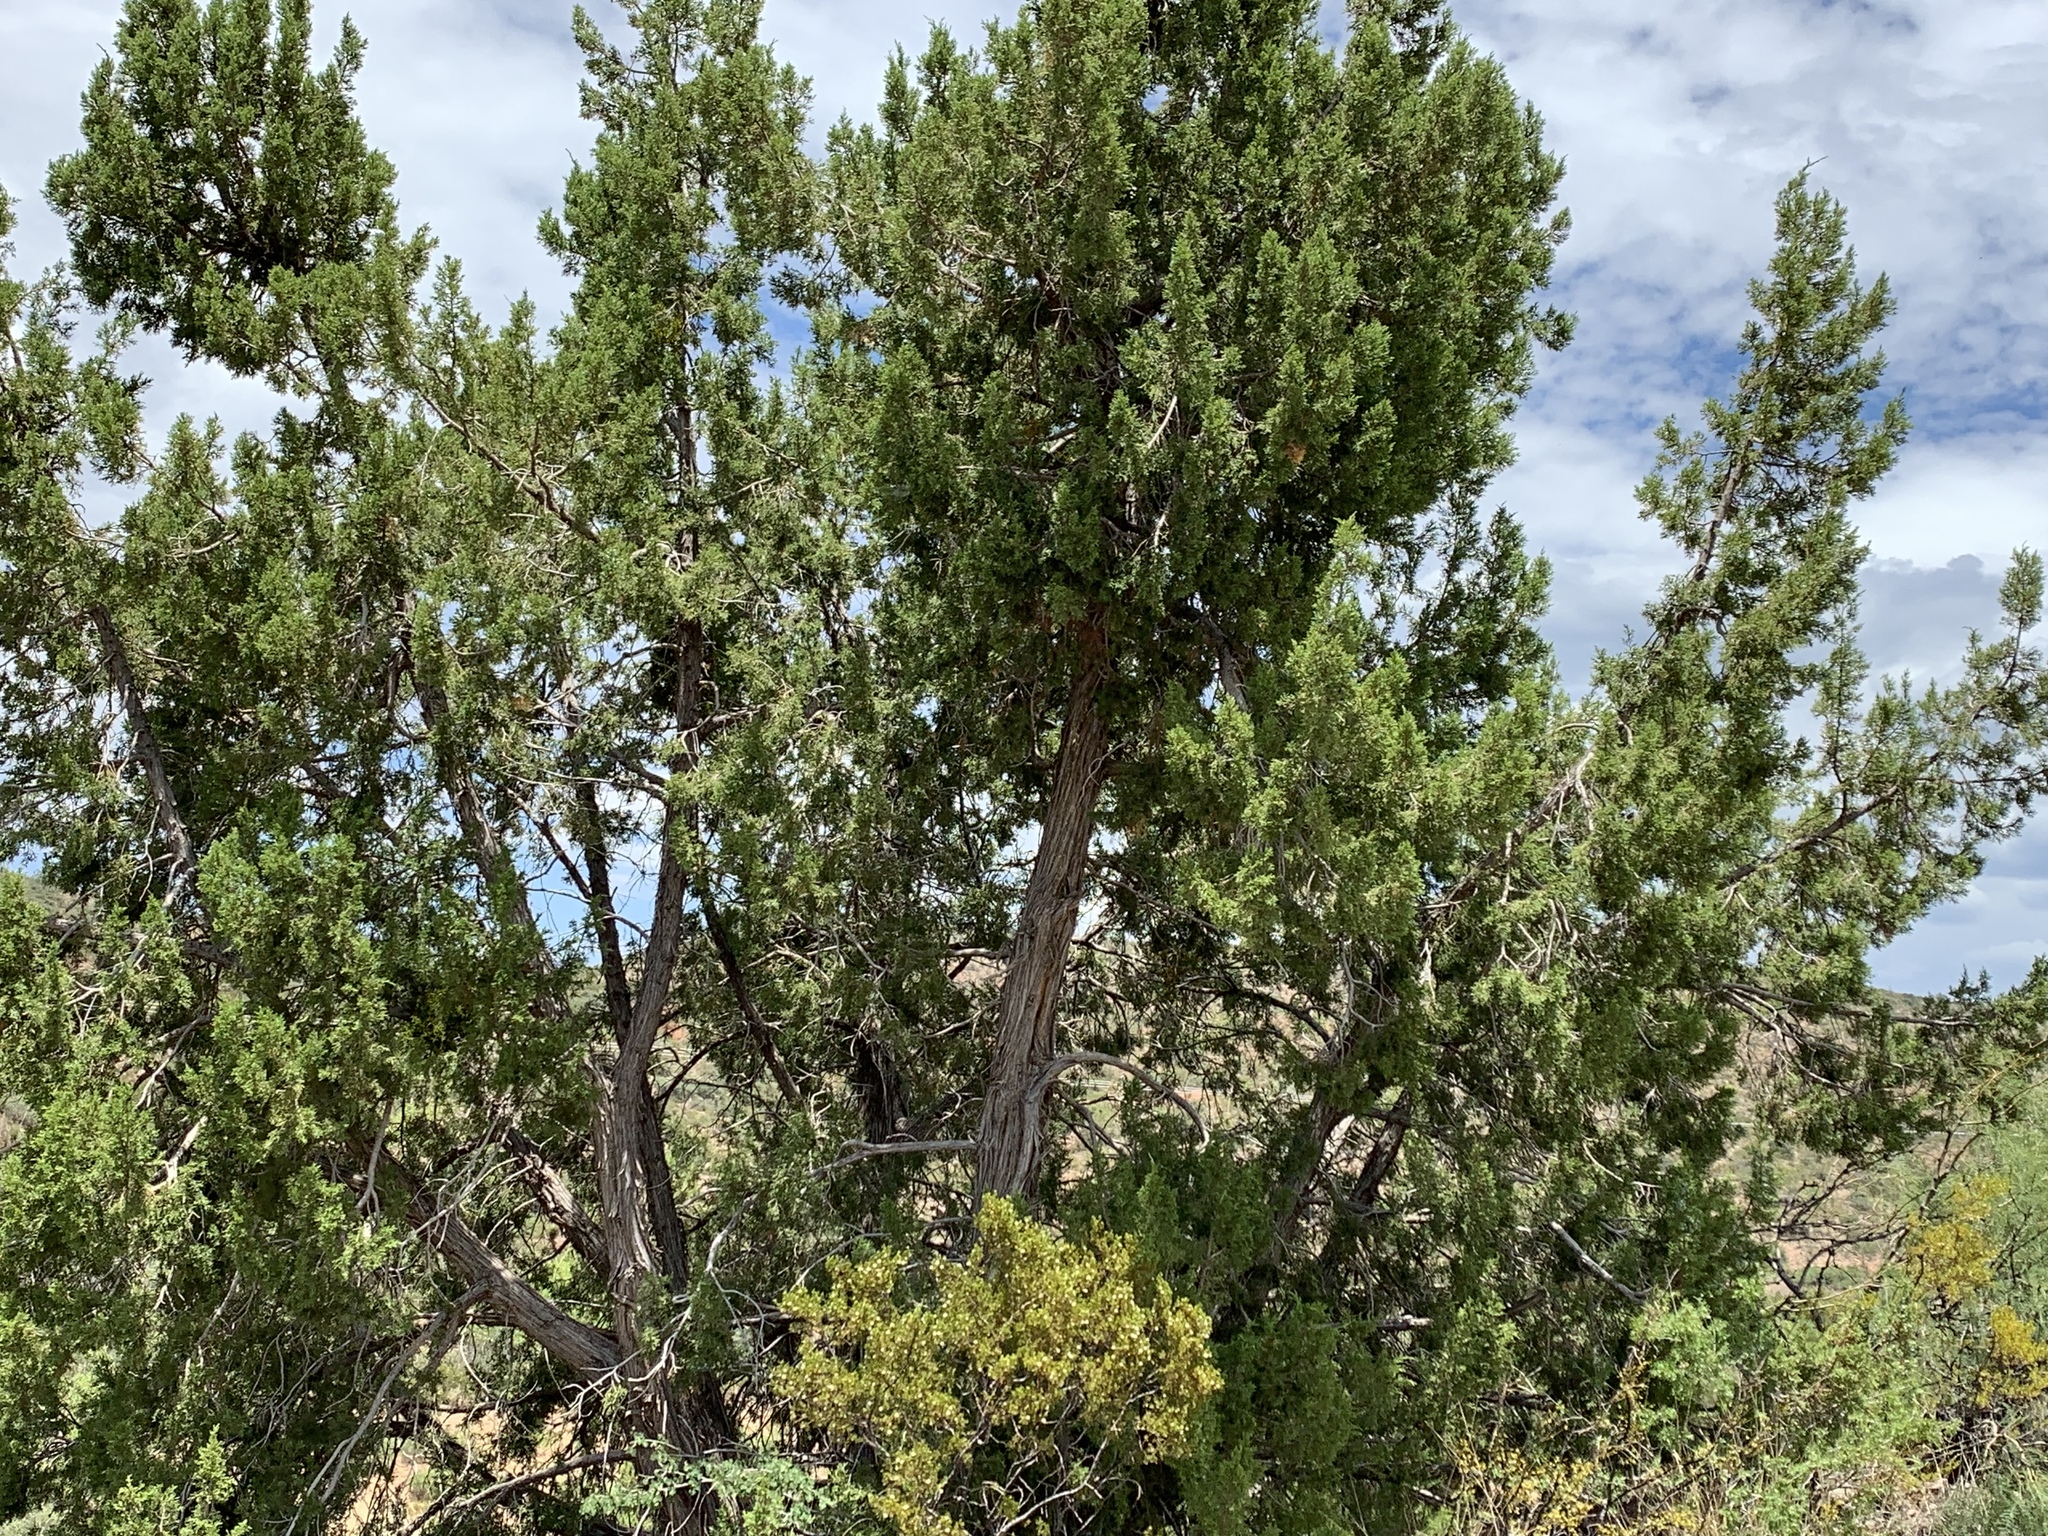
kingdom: Plantae
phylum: Tracheophyta
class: Pinopsida
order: Pinales
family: Cupressaceae
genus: Juniperus
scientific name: Juniperus monosperma
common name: One-seed juniper
